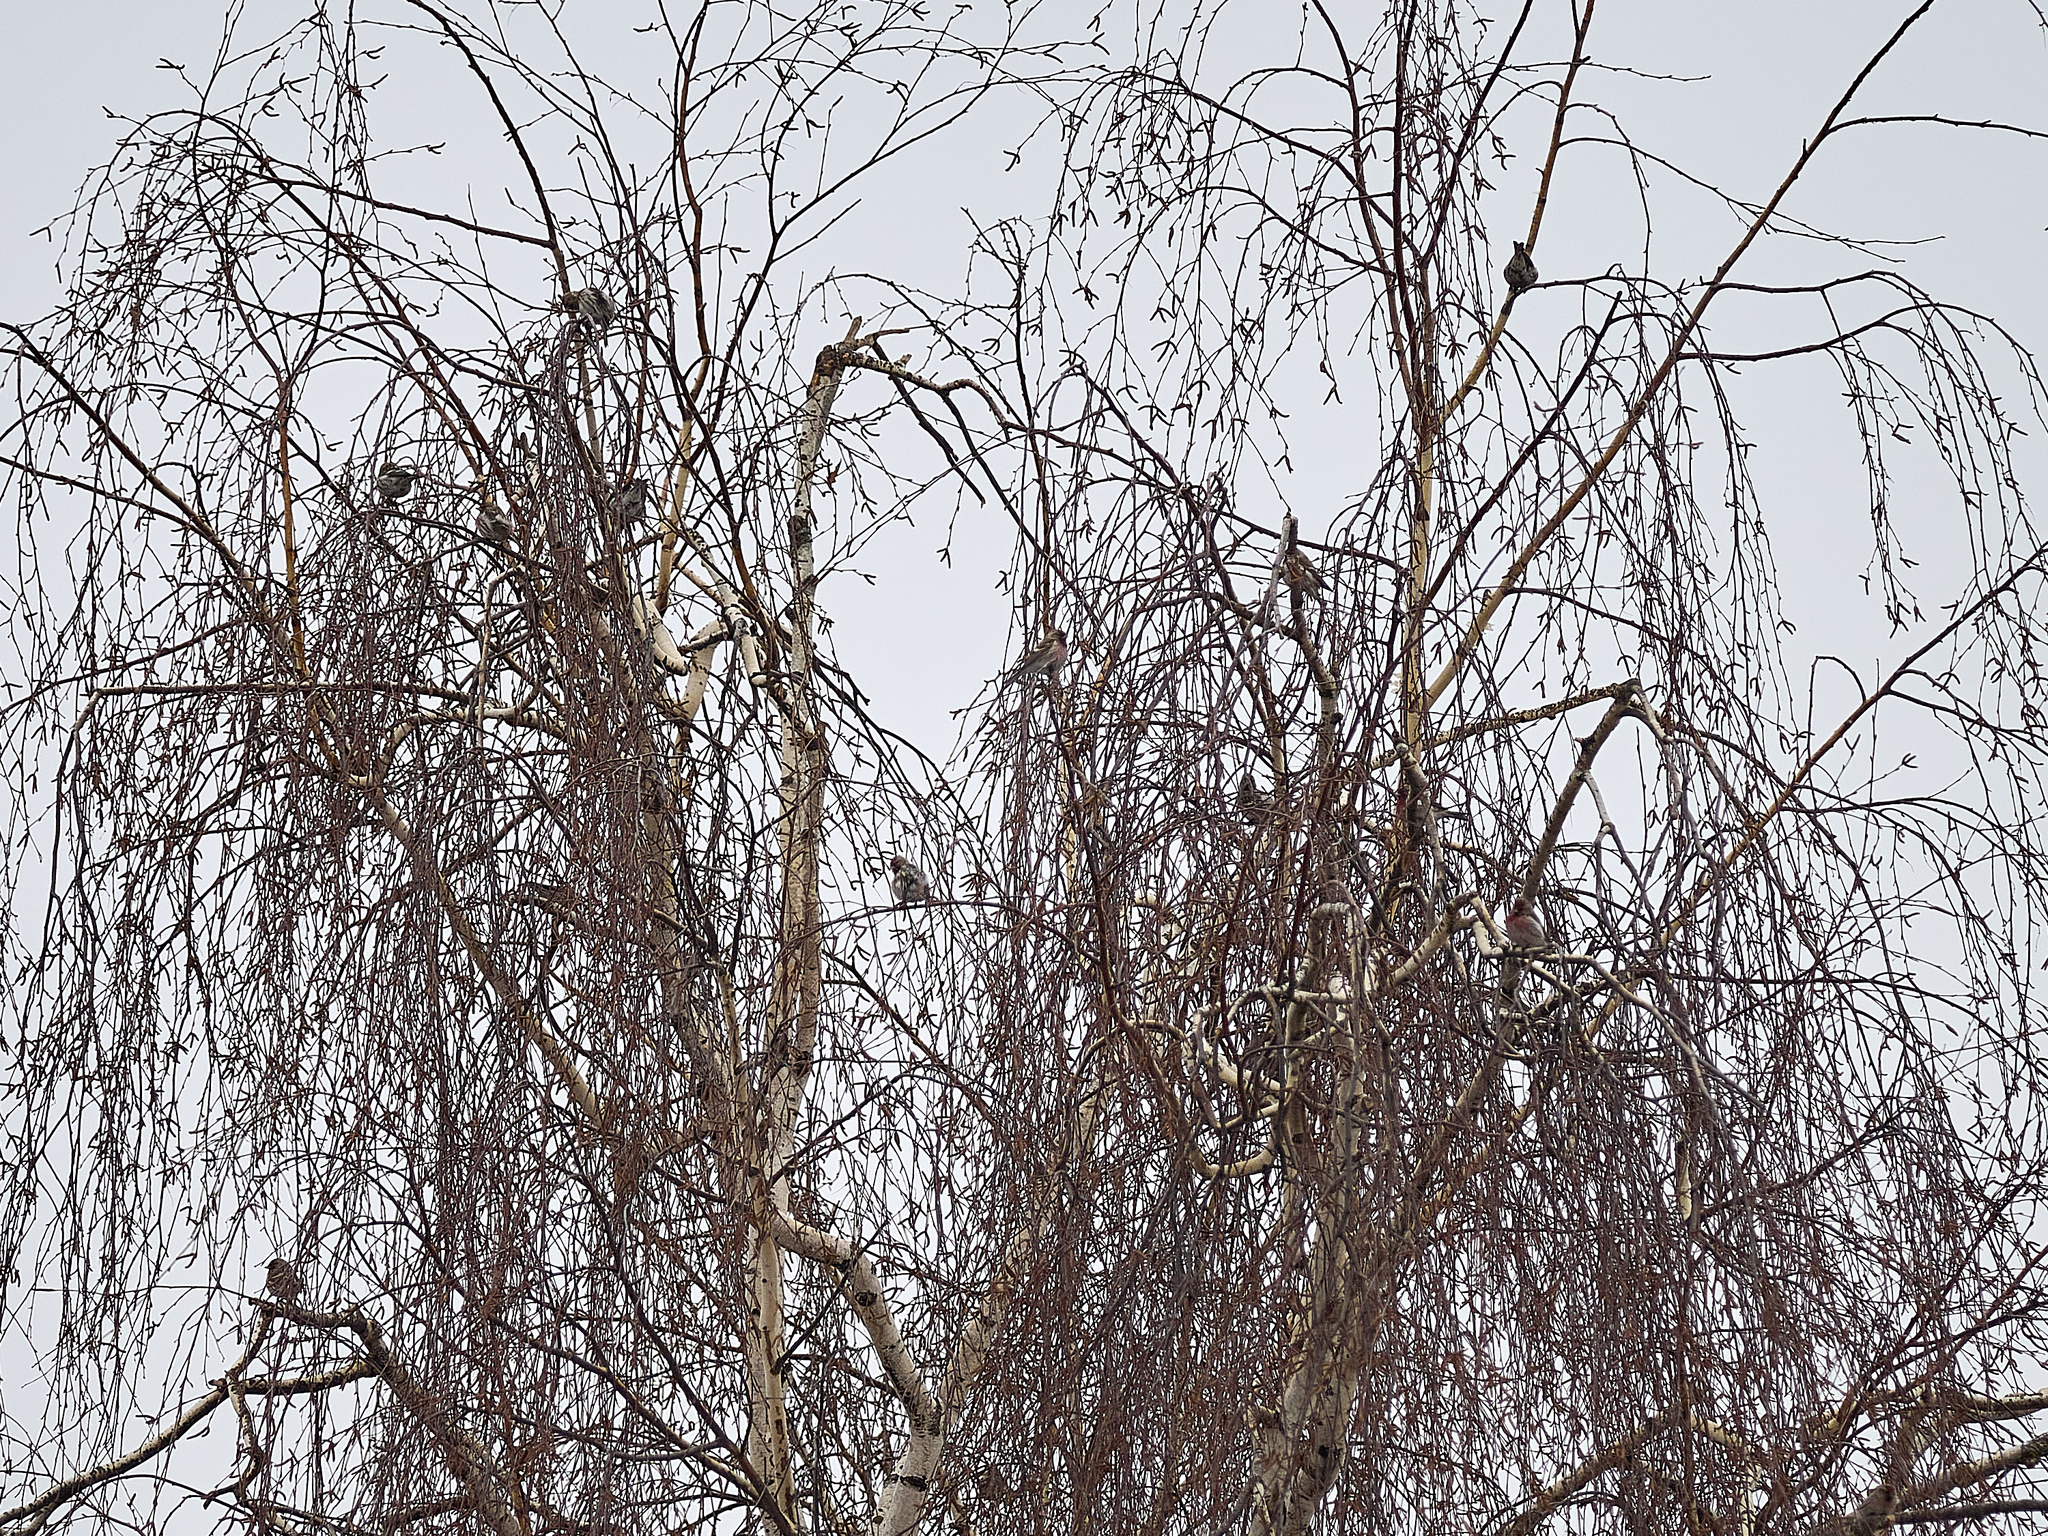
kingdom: Animalia
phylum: Chordata
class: Aves
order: Passeriformes
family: Fringillidae
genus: Acanthis
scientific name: Acanthis flammea
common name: Common redpoll
